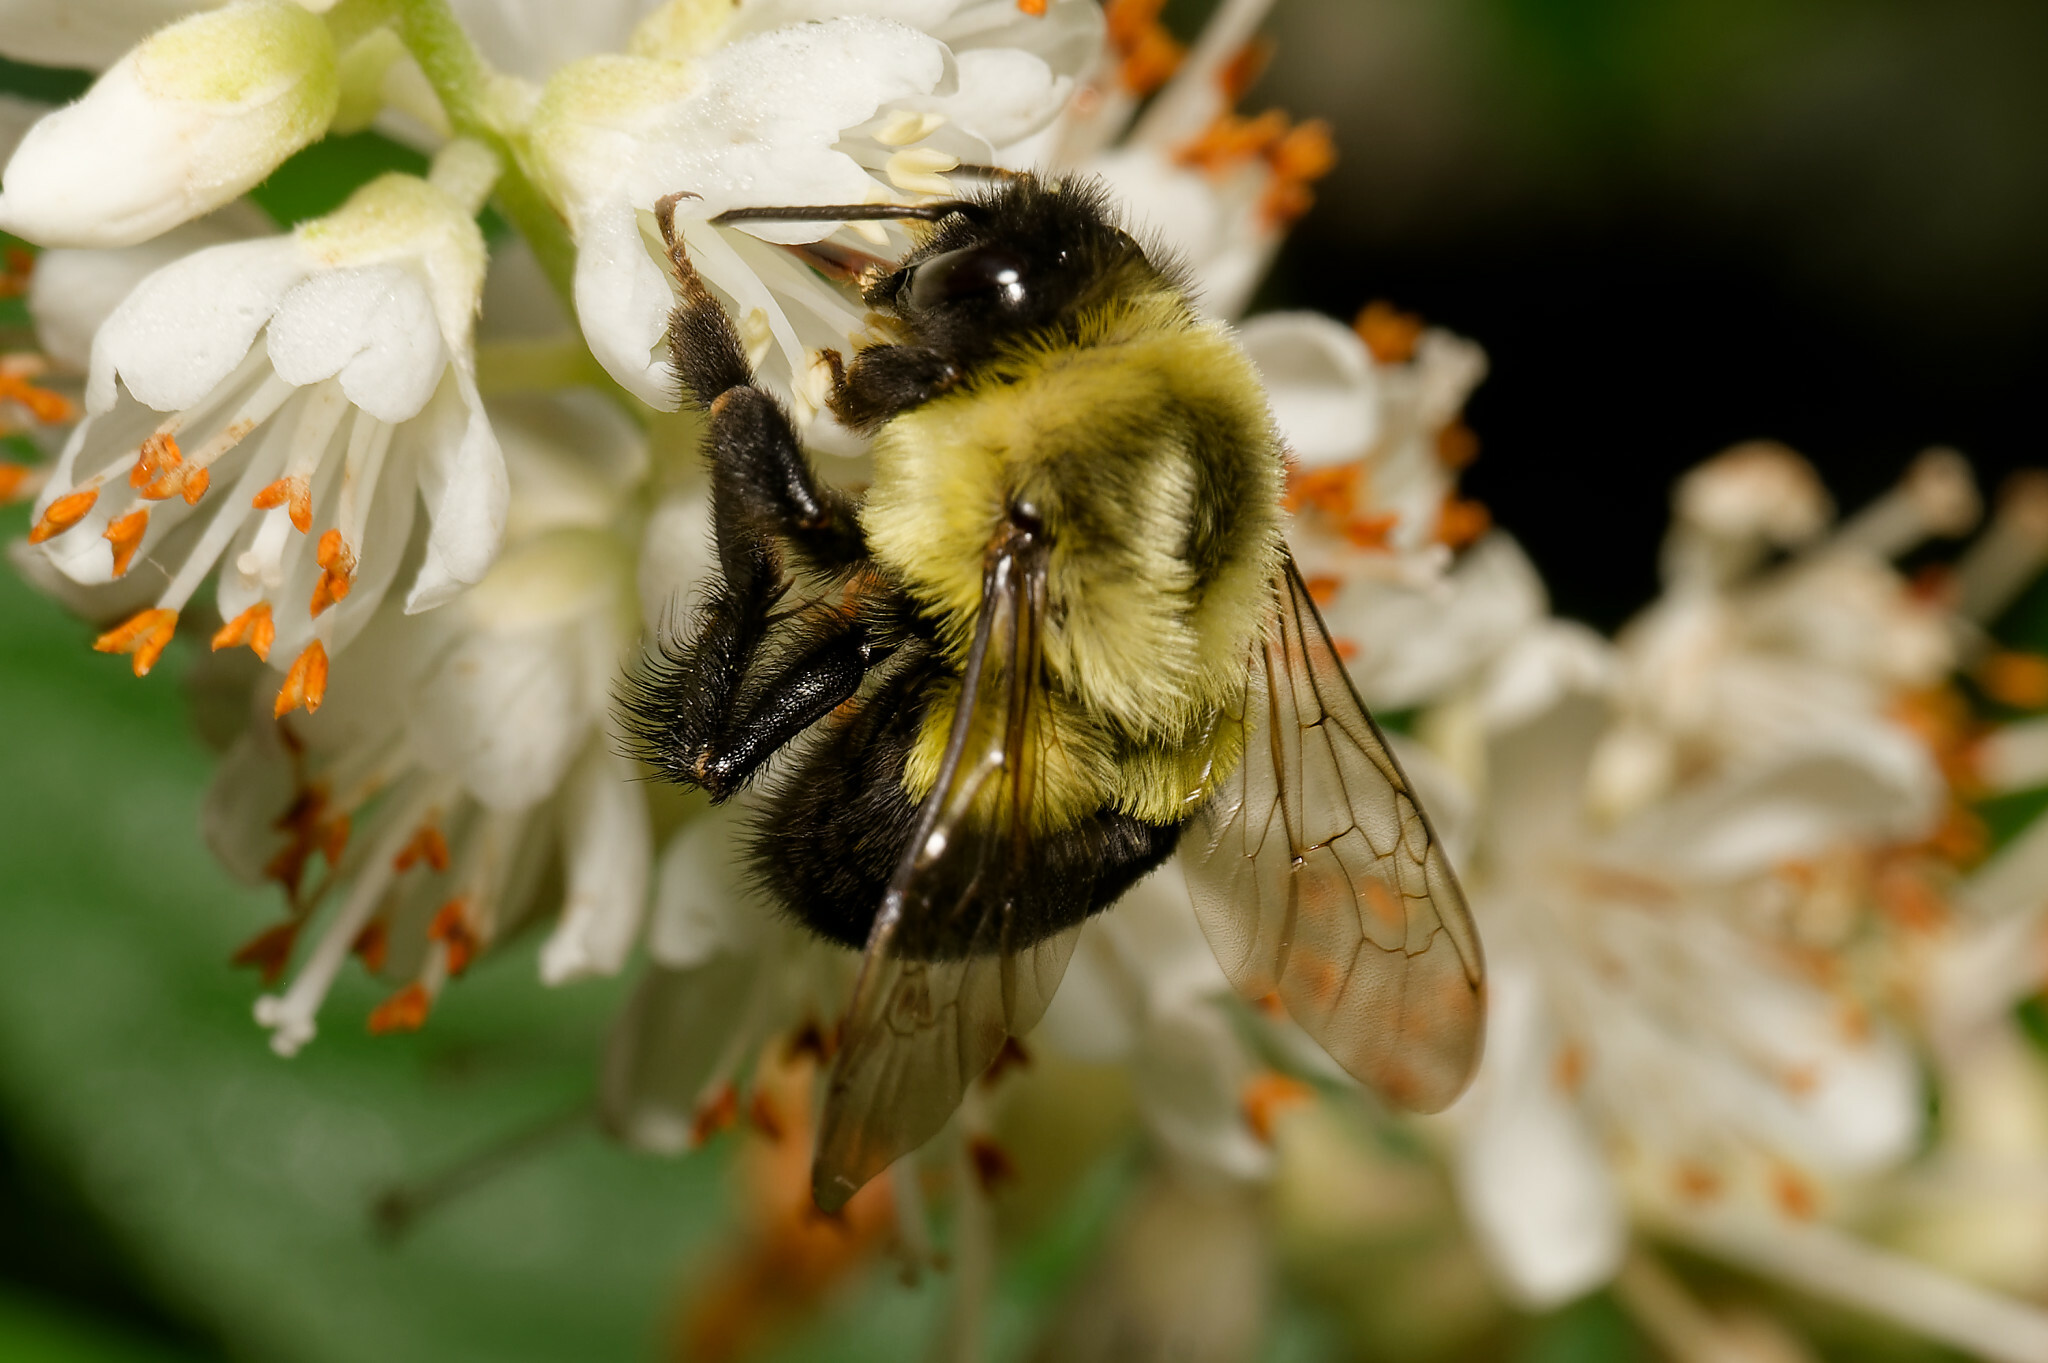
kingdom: Animalia
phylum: Arthropoda
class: Insecta
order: Hymenoptera
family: Apidae
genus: Bombus
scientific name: Bombus impatiens
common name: Common eastern bumble bee
